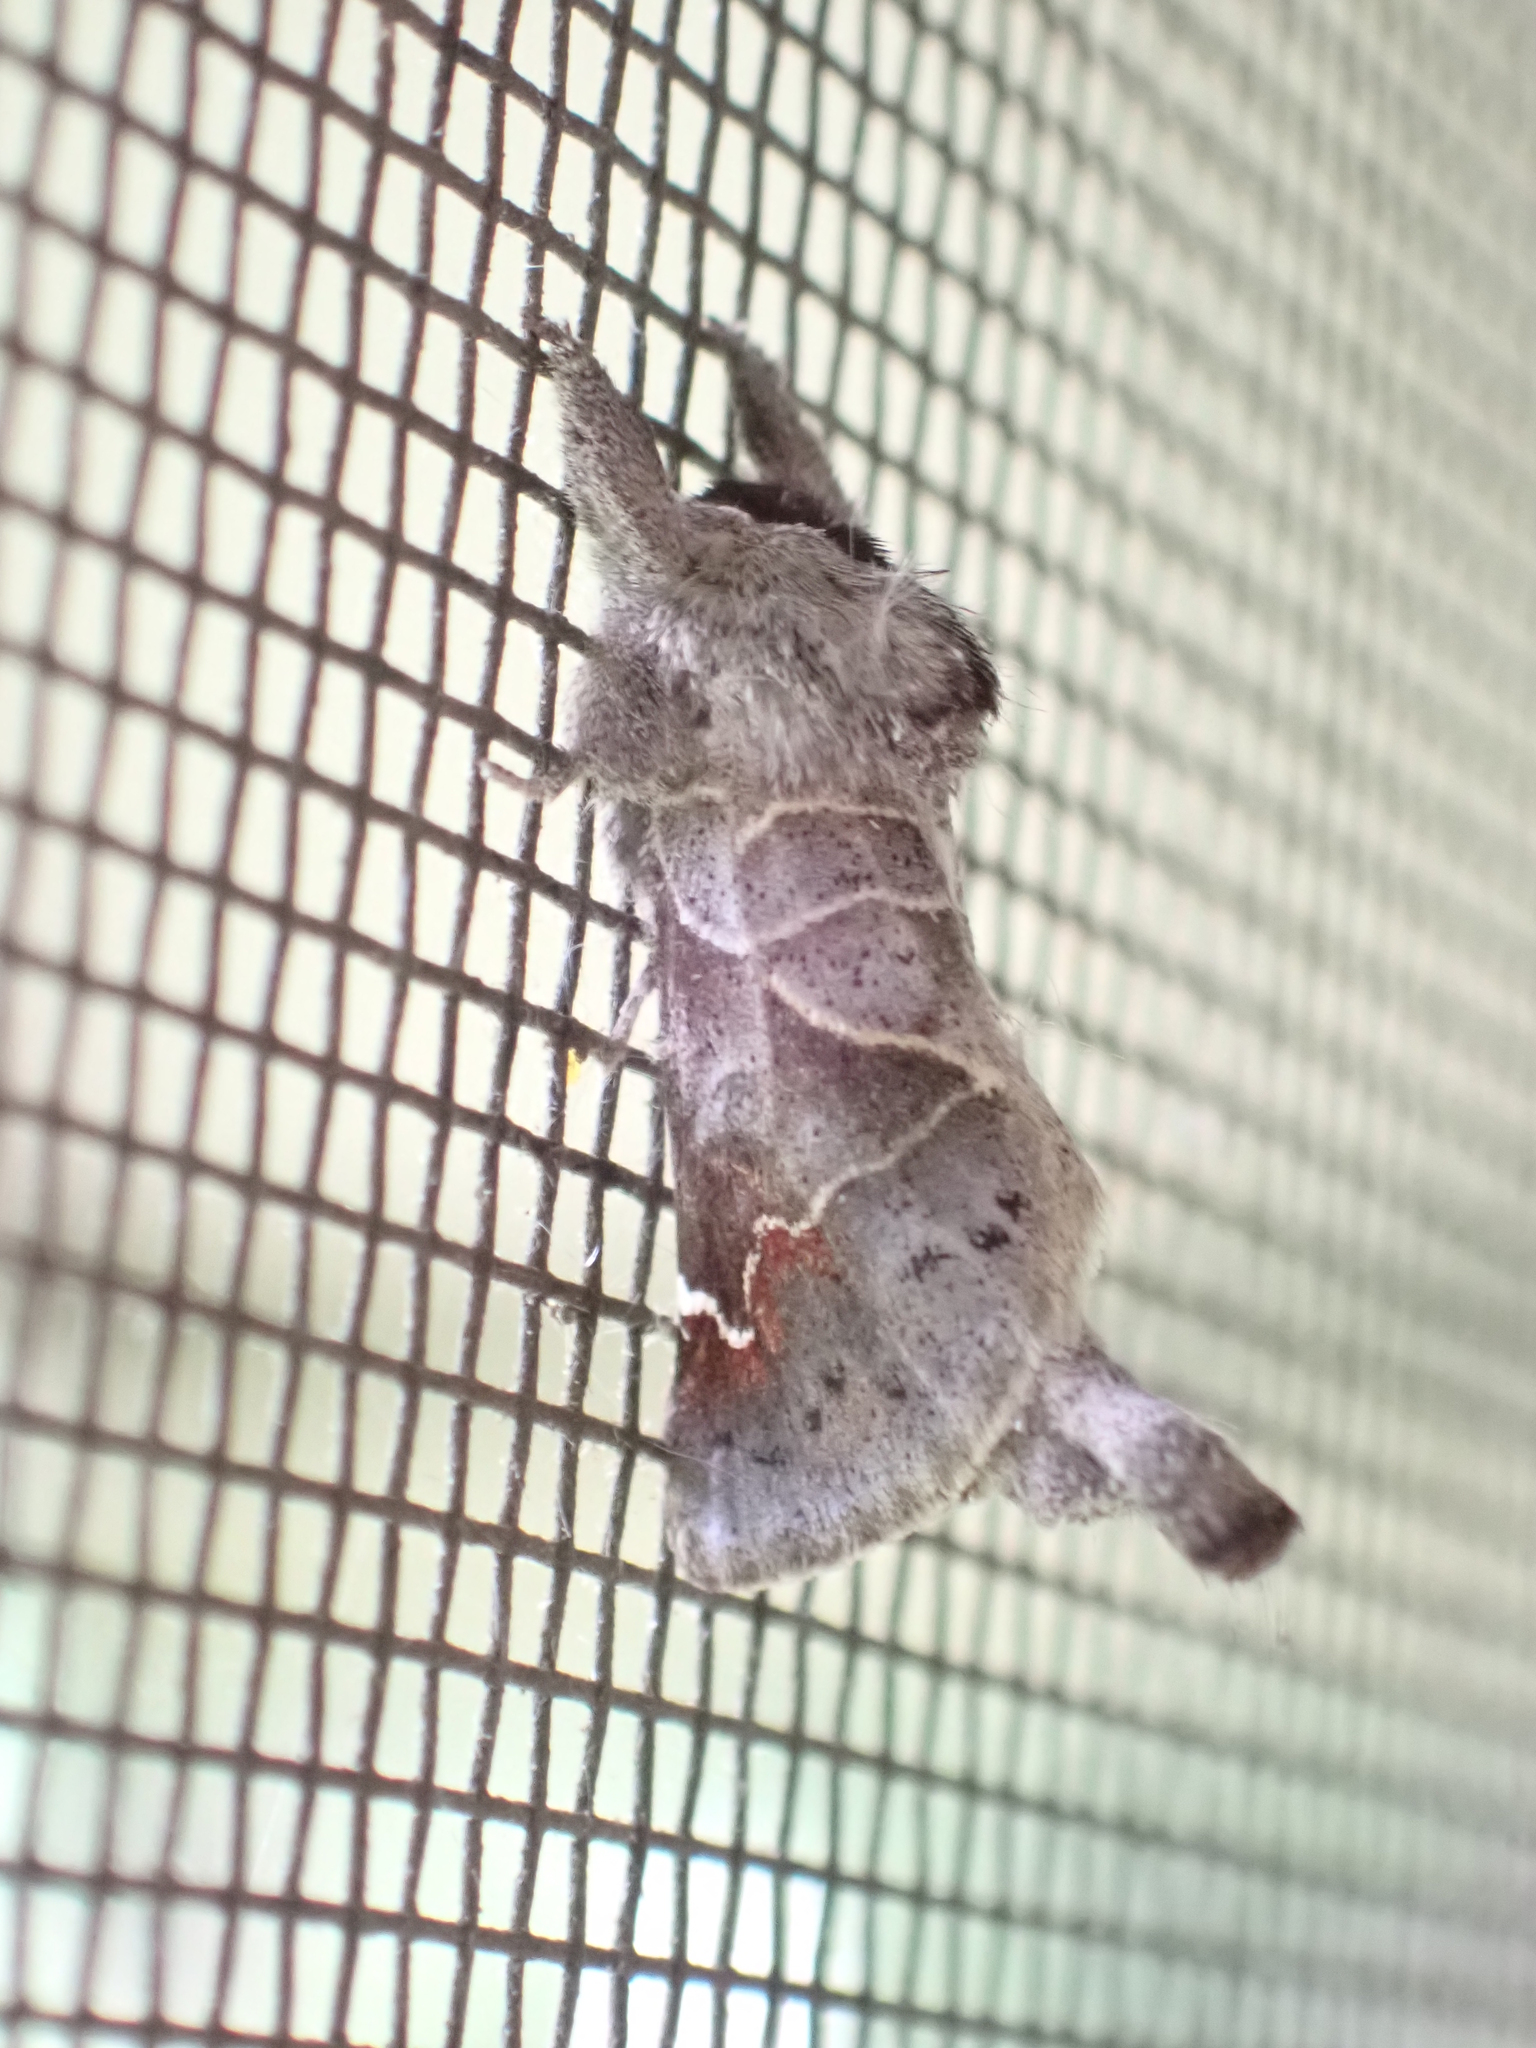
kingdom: Animalia
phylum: Arthropoda
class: Insecta
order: Lepidoptera
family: Notodontidae
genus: Clostera
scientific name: Clostera apicalis
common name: Apical prominent
